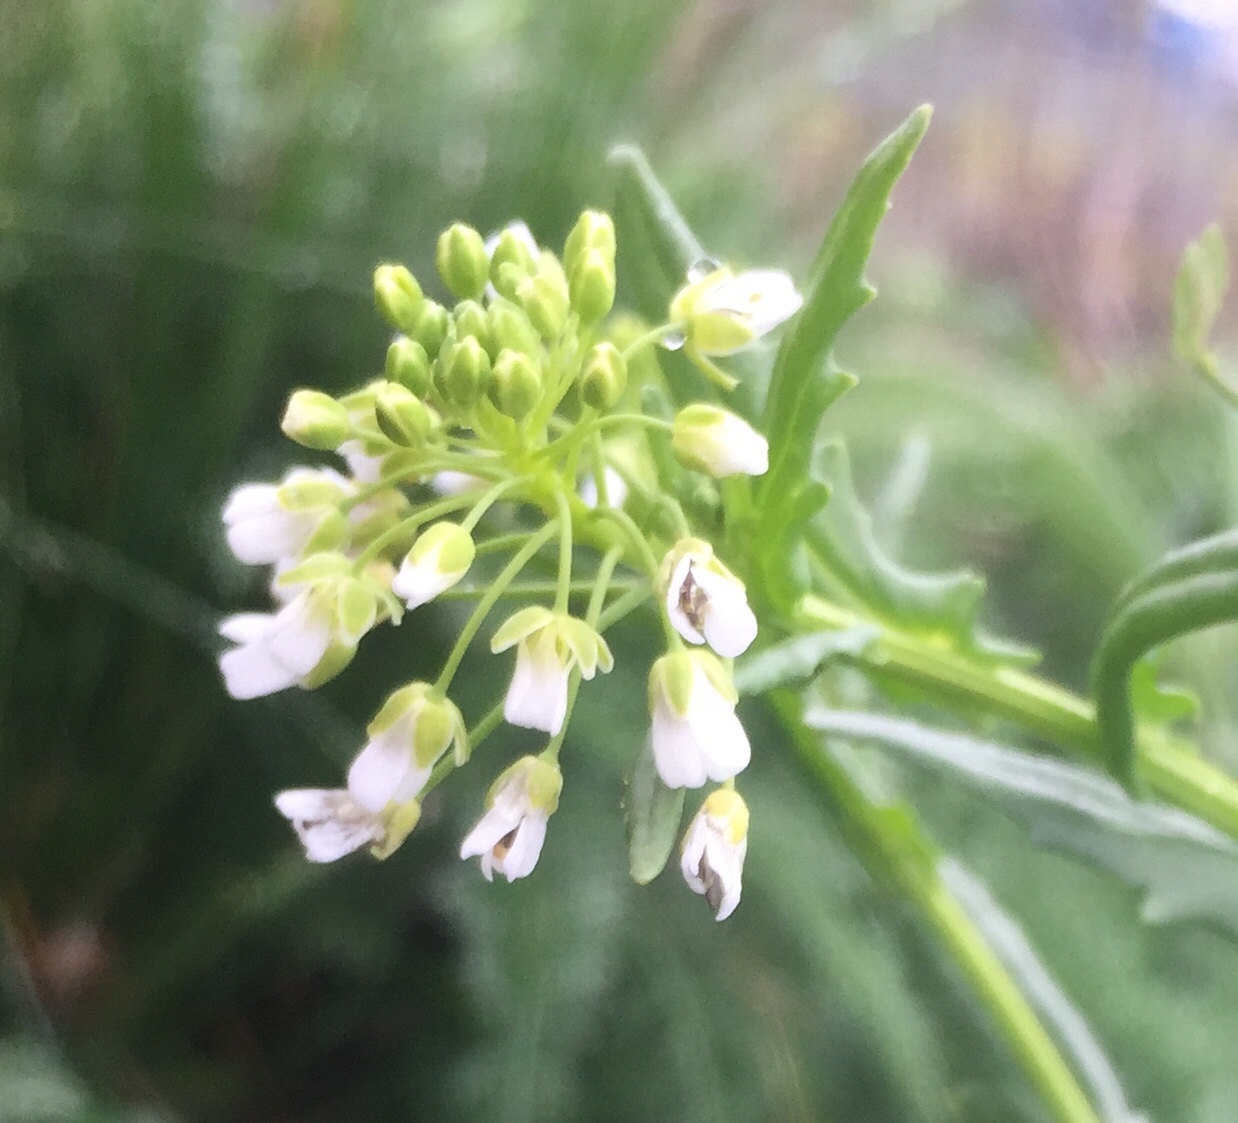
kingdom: Plantae
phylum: Tracheophyta
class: Magnoliopsida
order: Brassicales
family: Brassicaceae
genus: Thlaspi
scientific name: Thlaspi arvense
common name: Field pennycress
